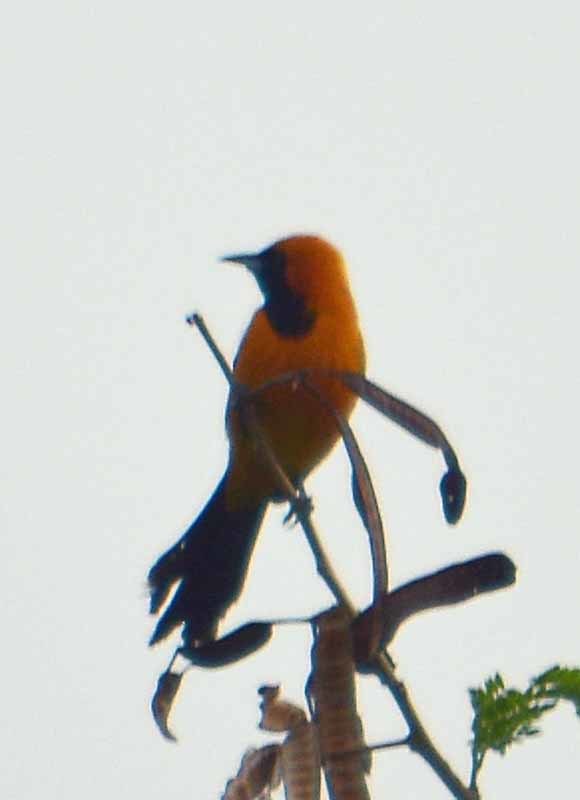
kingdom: Animalia
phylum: Chordata
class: Aves
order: Passeriformes
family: Icteridae
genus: Icterus
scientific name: Icterus cucullatus
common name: Hooded oriole
